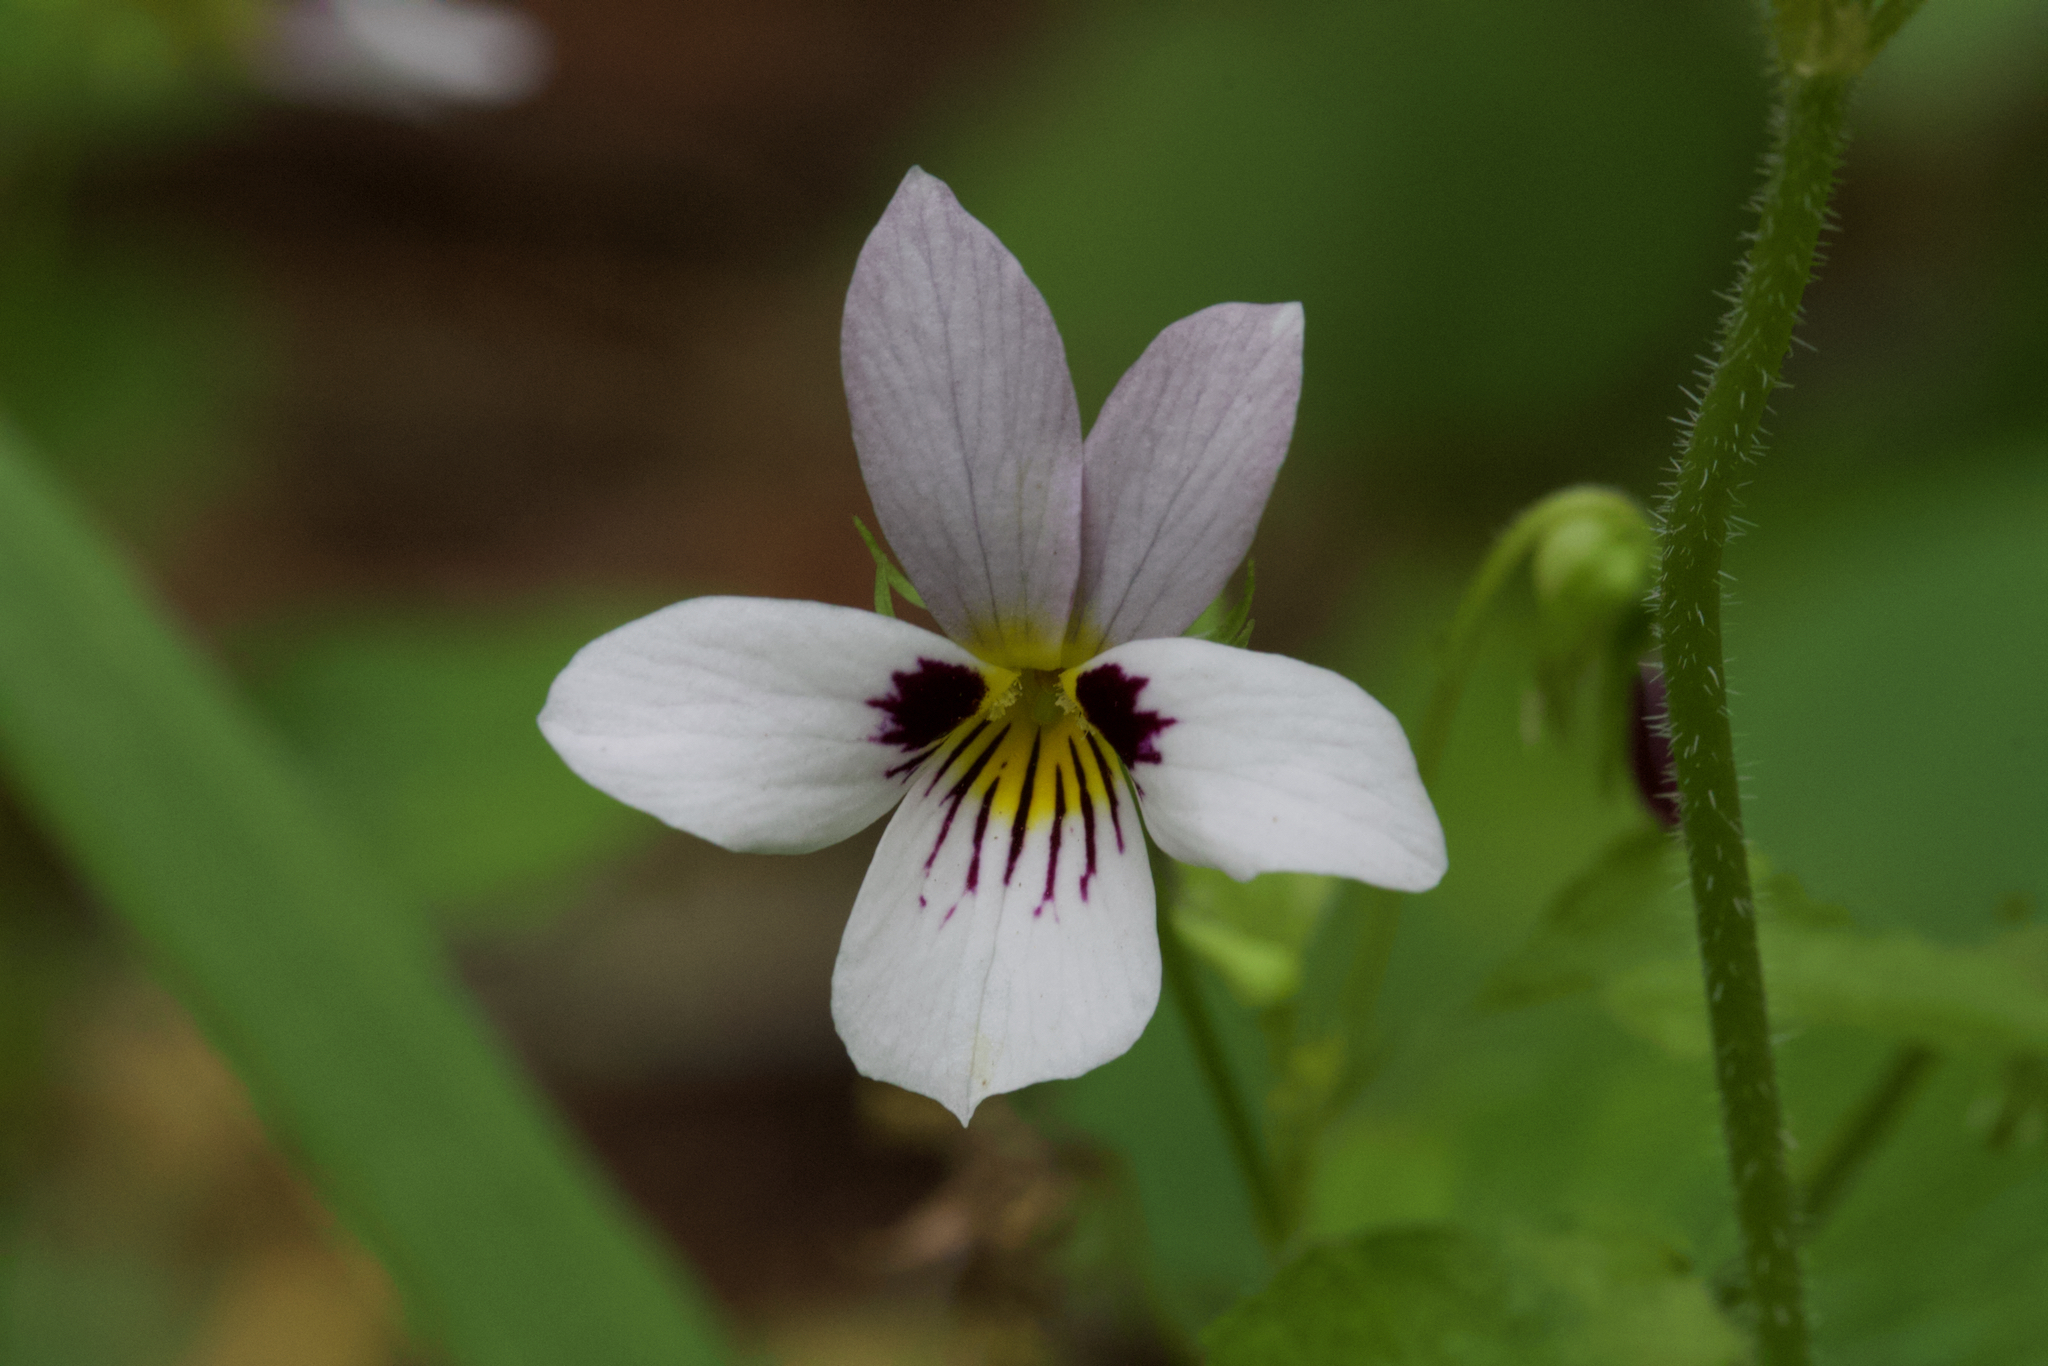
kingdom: Plantae
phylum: Tracheophyta
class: Magnoliopsida
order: Malpighiales
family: Violaceae
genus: Viola
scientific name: Viola ocellata
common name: Western heart's ease
